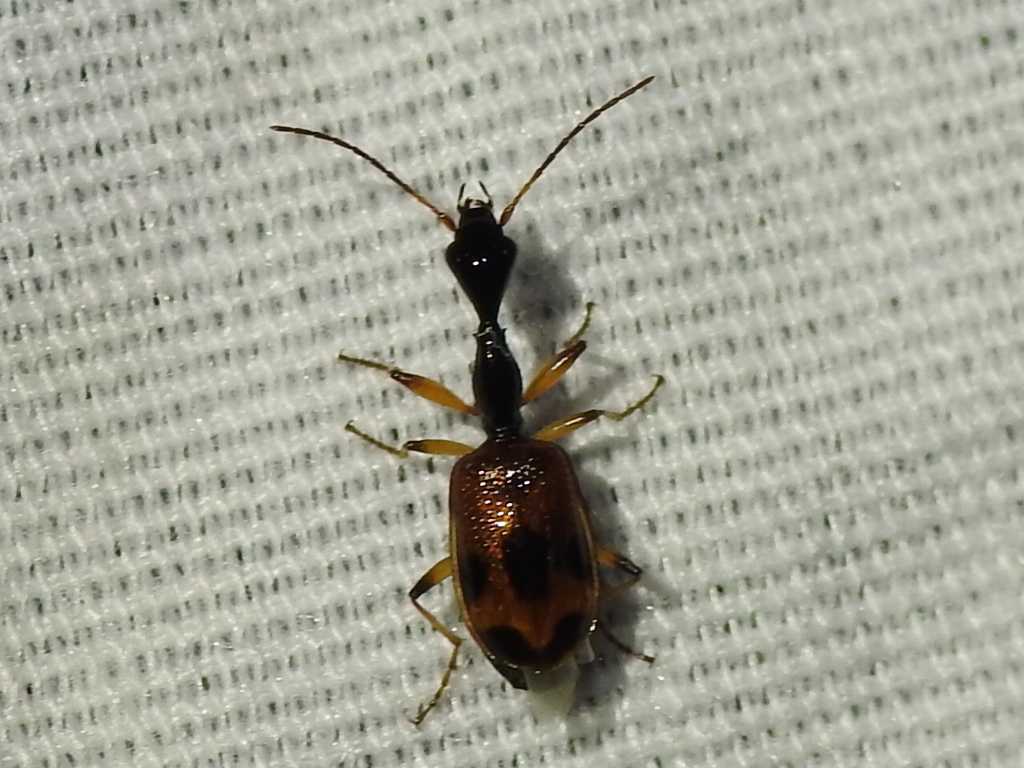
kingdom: Animalia
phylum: Arthropoda
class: Insecta
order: Coleoptera
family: Carabidae
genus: Colliuris
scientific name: Colliuris pensylvanica
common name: Long-necked ground beetle
